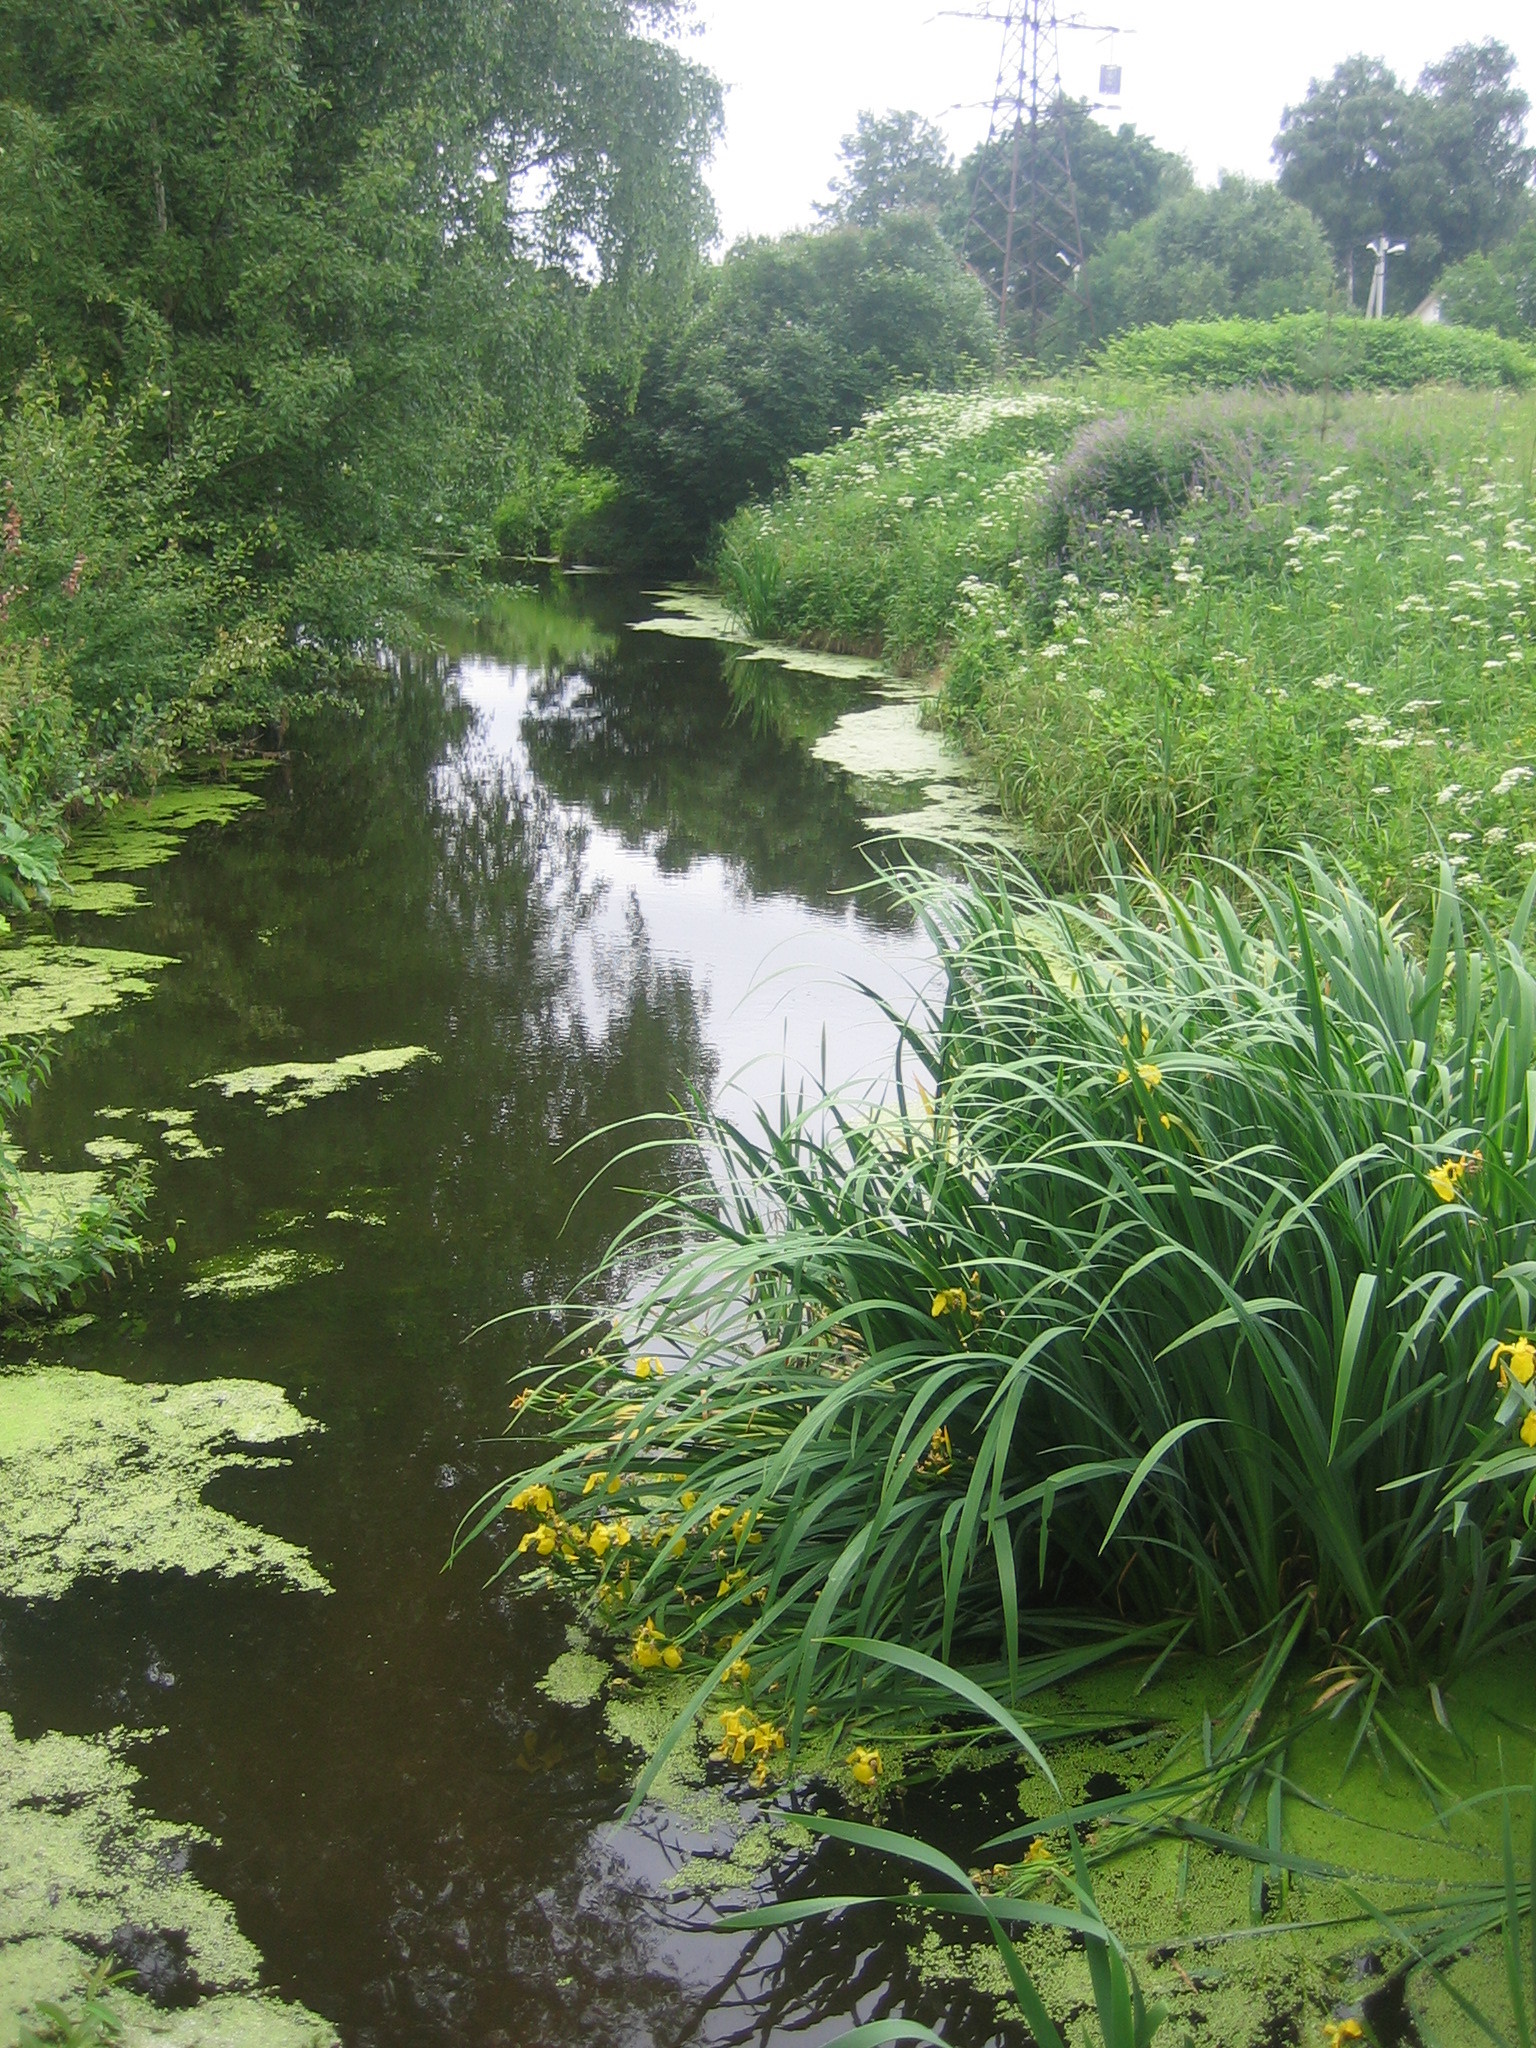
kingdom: Plantae
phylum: Tracheophyta
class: Liliopsida
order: Asparagales
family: Iridaceae
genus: Iris
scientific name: Iris pseudacorus
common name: Yellow flag
